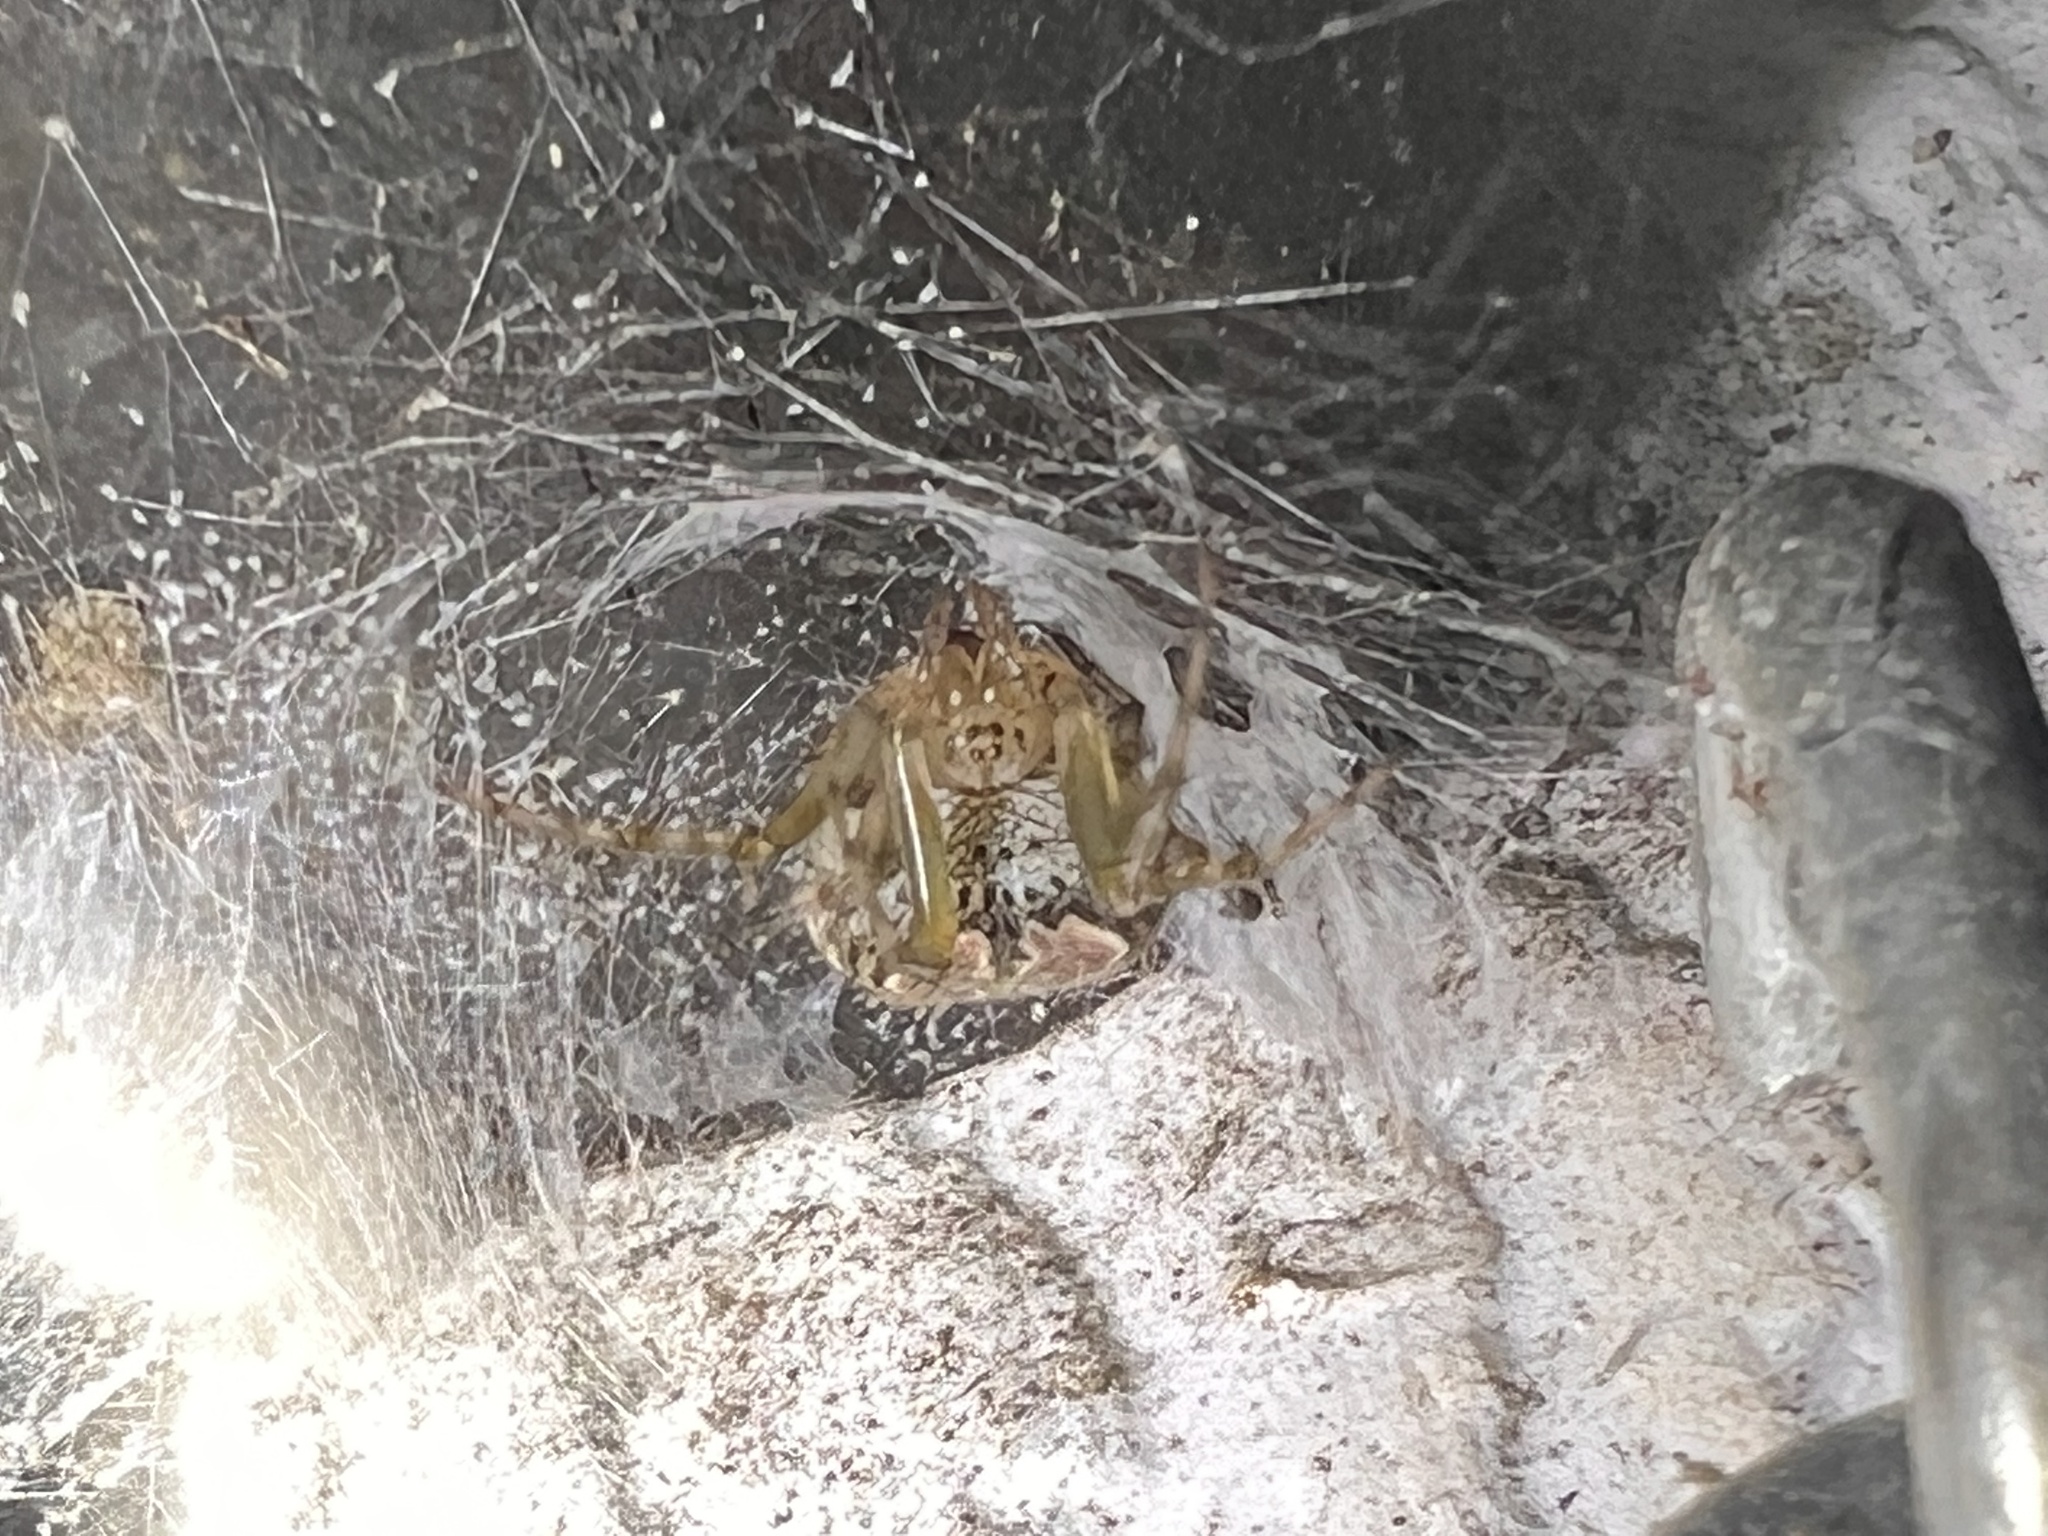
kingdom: Animalia
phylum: Arthropoda
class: Arachnida
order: Araneae
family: Araneidae
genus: Araneus
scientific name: Araneus pegnia
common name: Orb weavers
